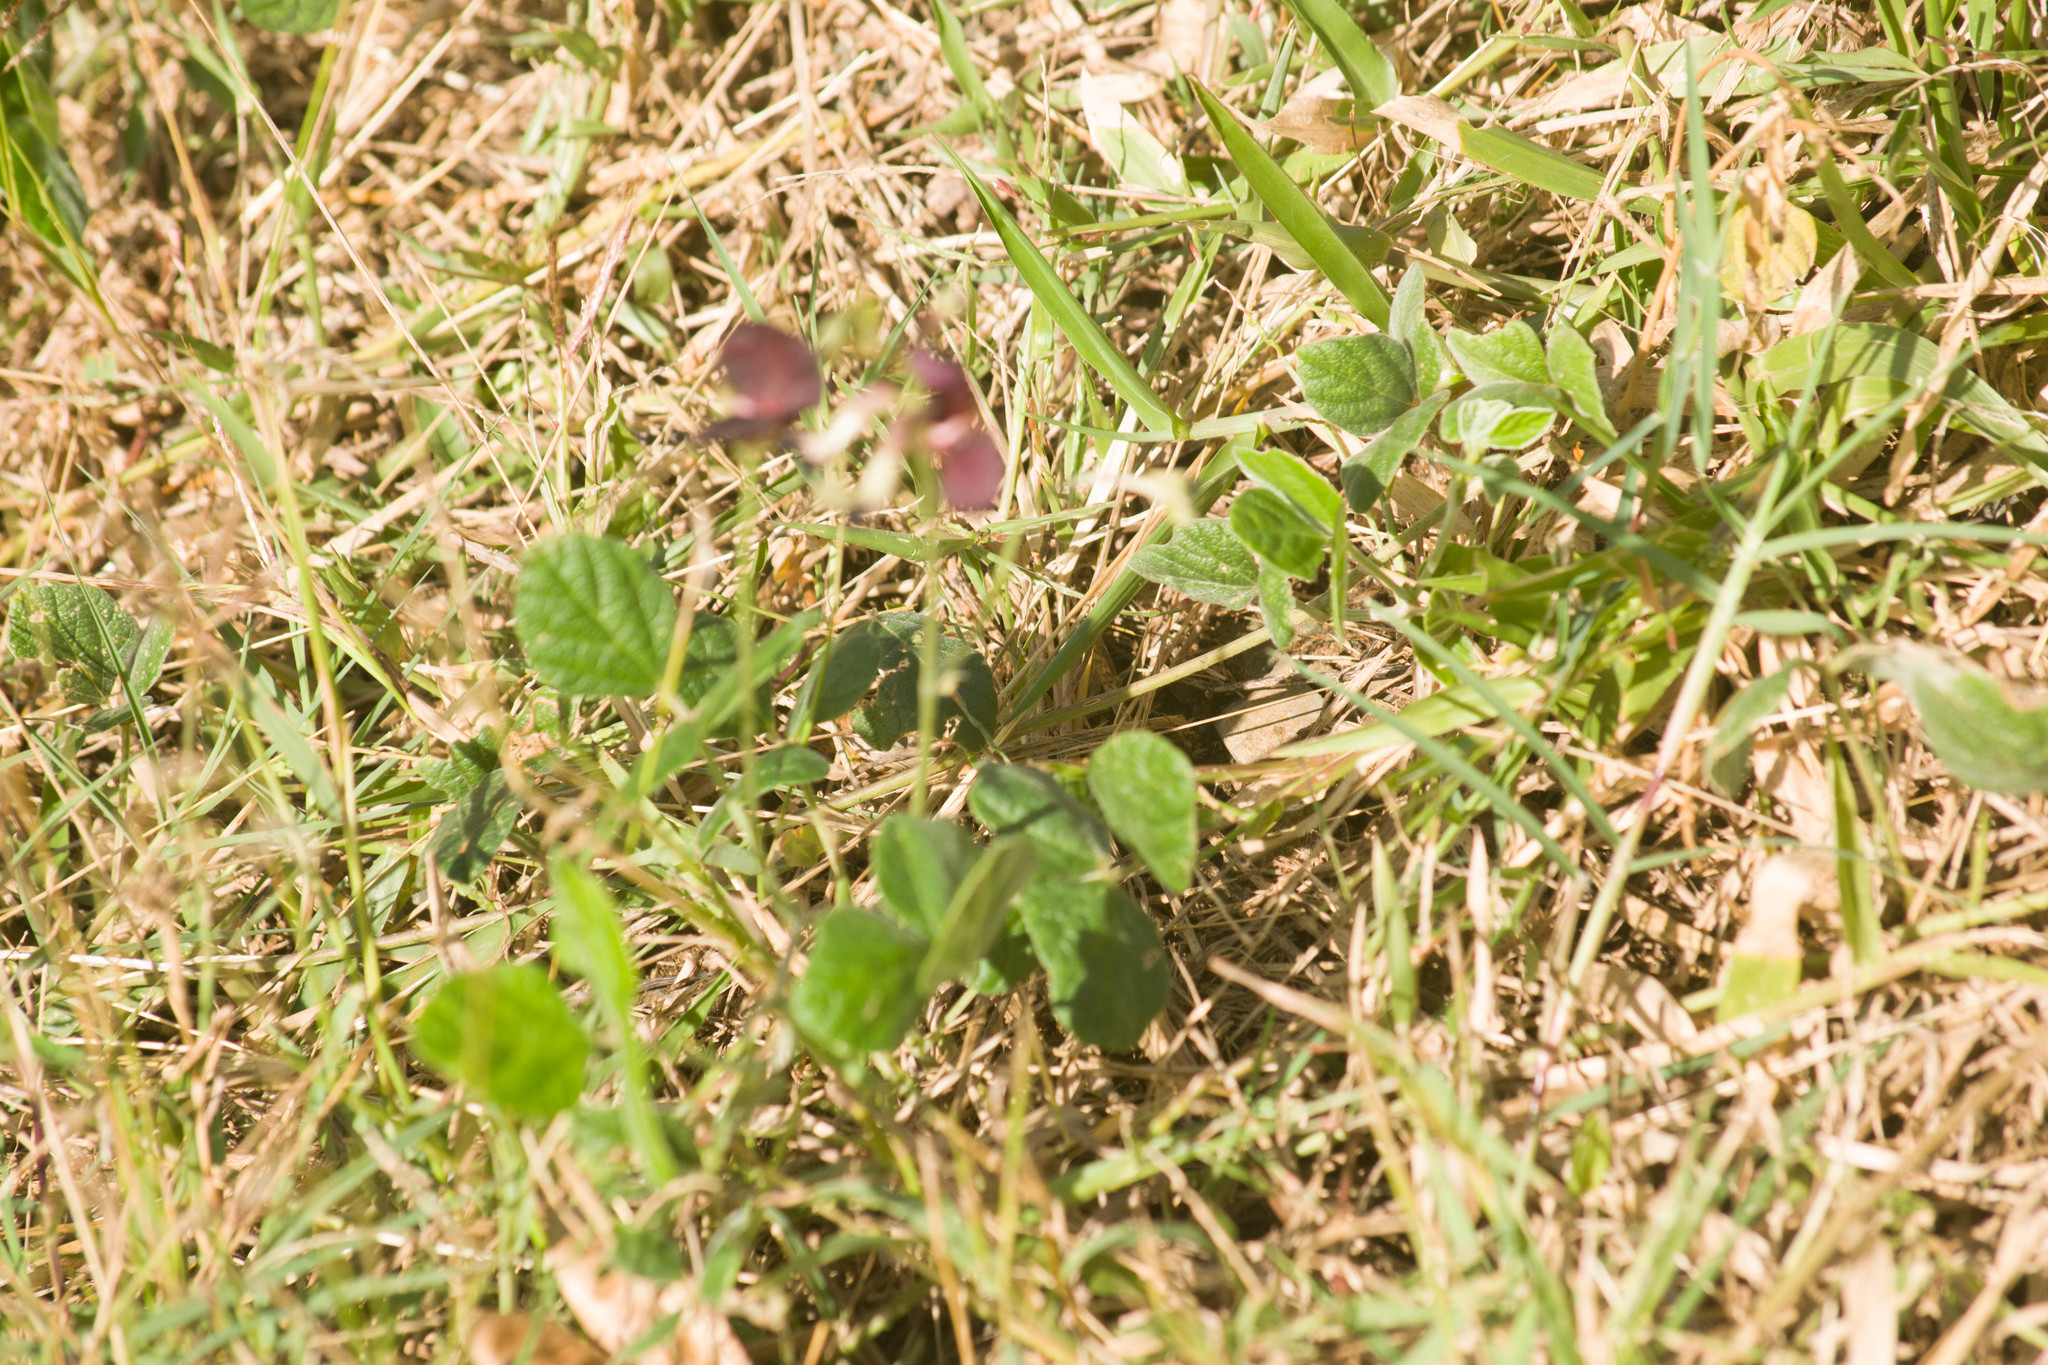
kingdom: Plantae
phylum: Tracheophyta
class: Magnoliopsida
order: Fabales
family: Fabaceae
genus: Macroptilium
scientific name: Macroptilium atropurpureum
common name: Purple bushbean
